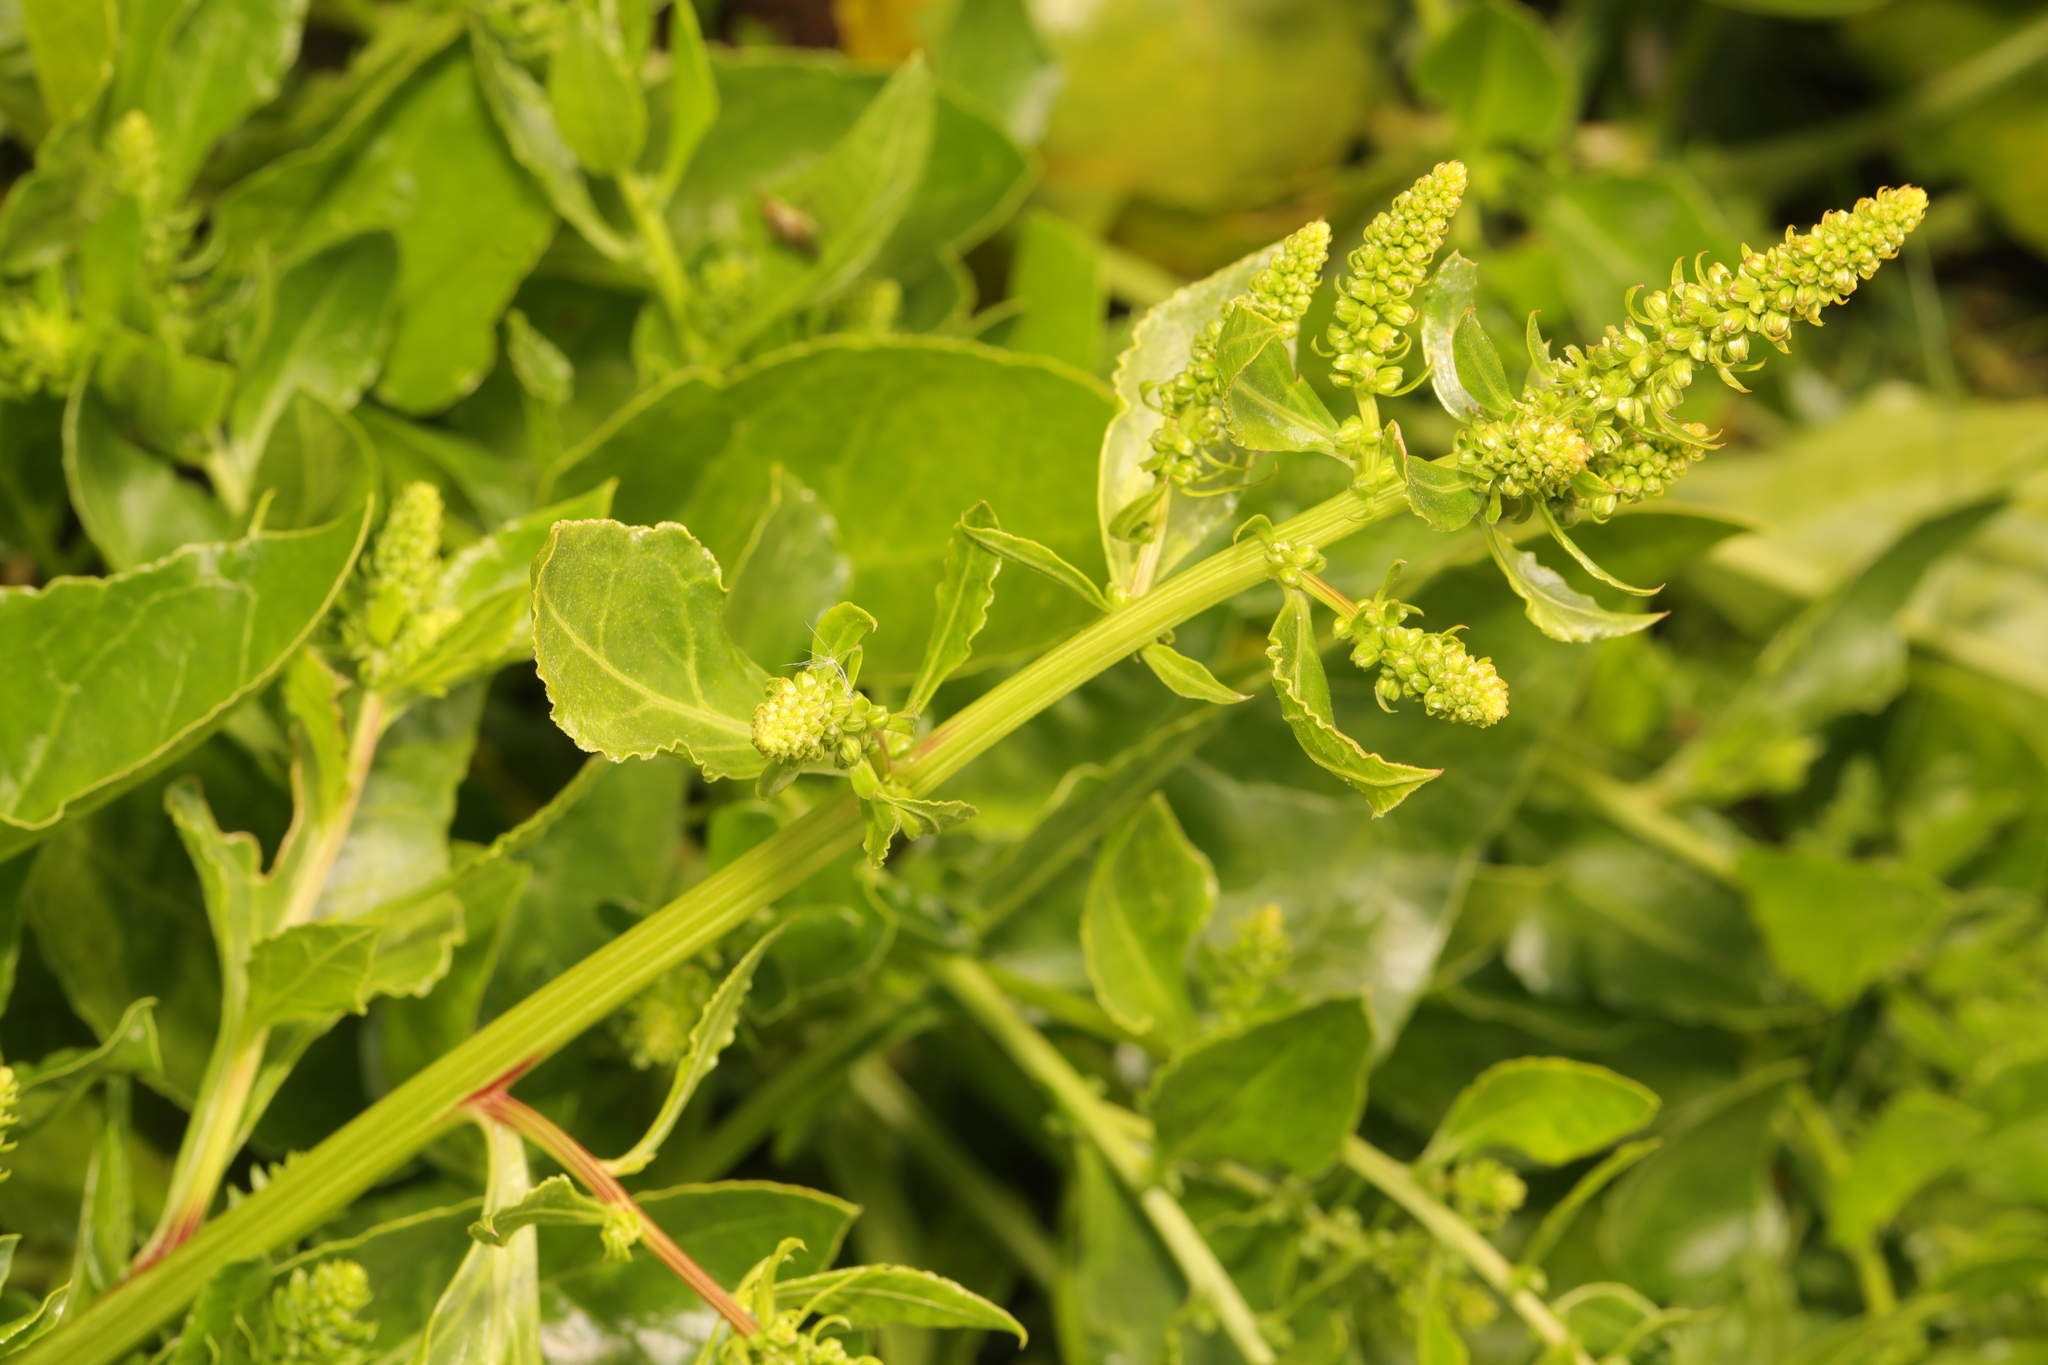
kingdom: Plantae
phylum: Tracheophyta
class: Magnoliopsida
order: Caryophyllales
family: Amaranthaceae
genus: Beta
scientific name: Beta vulgaris
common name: Beet
